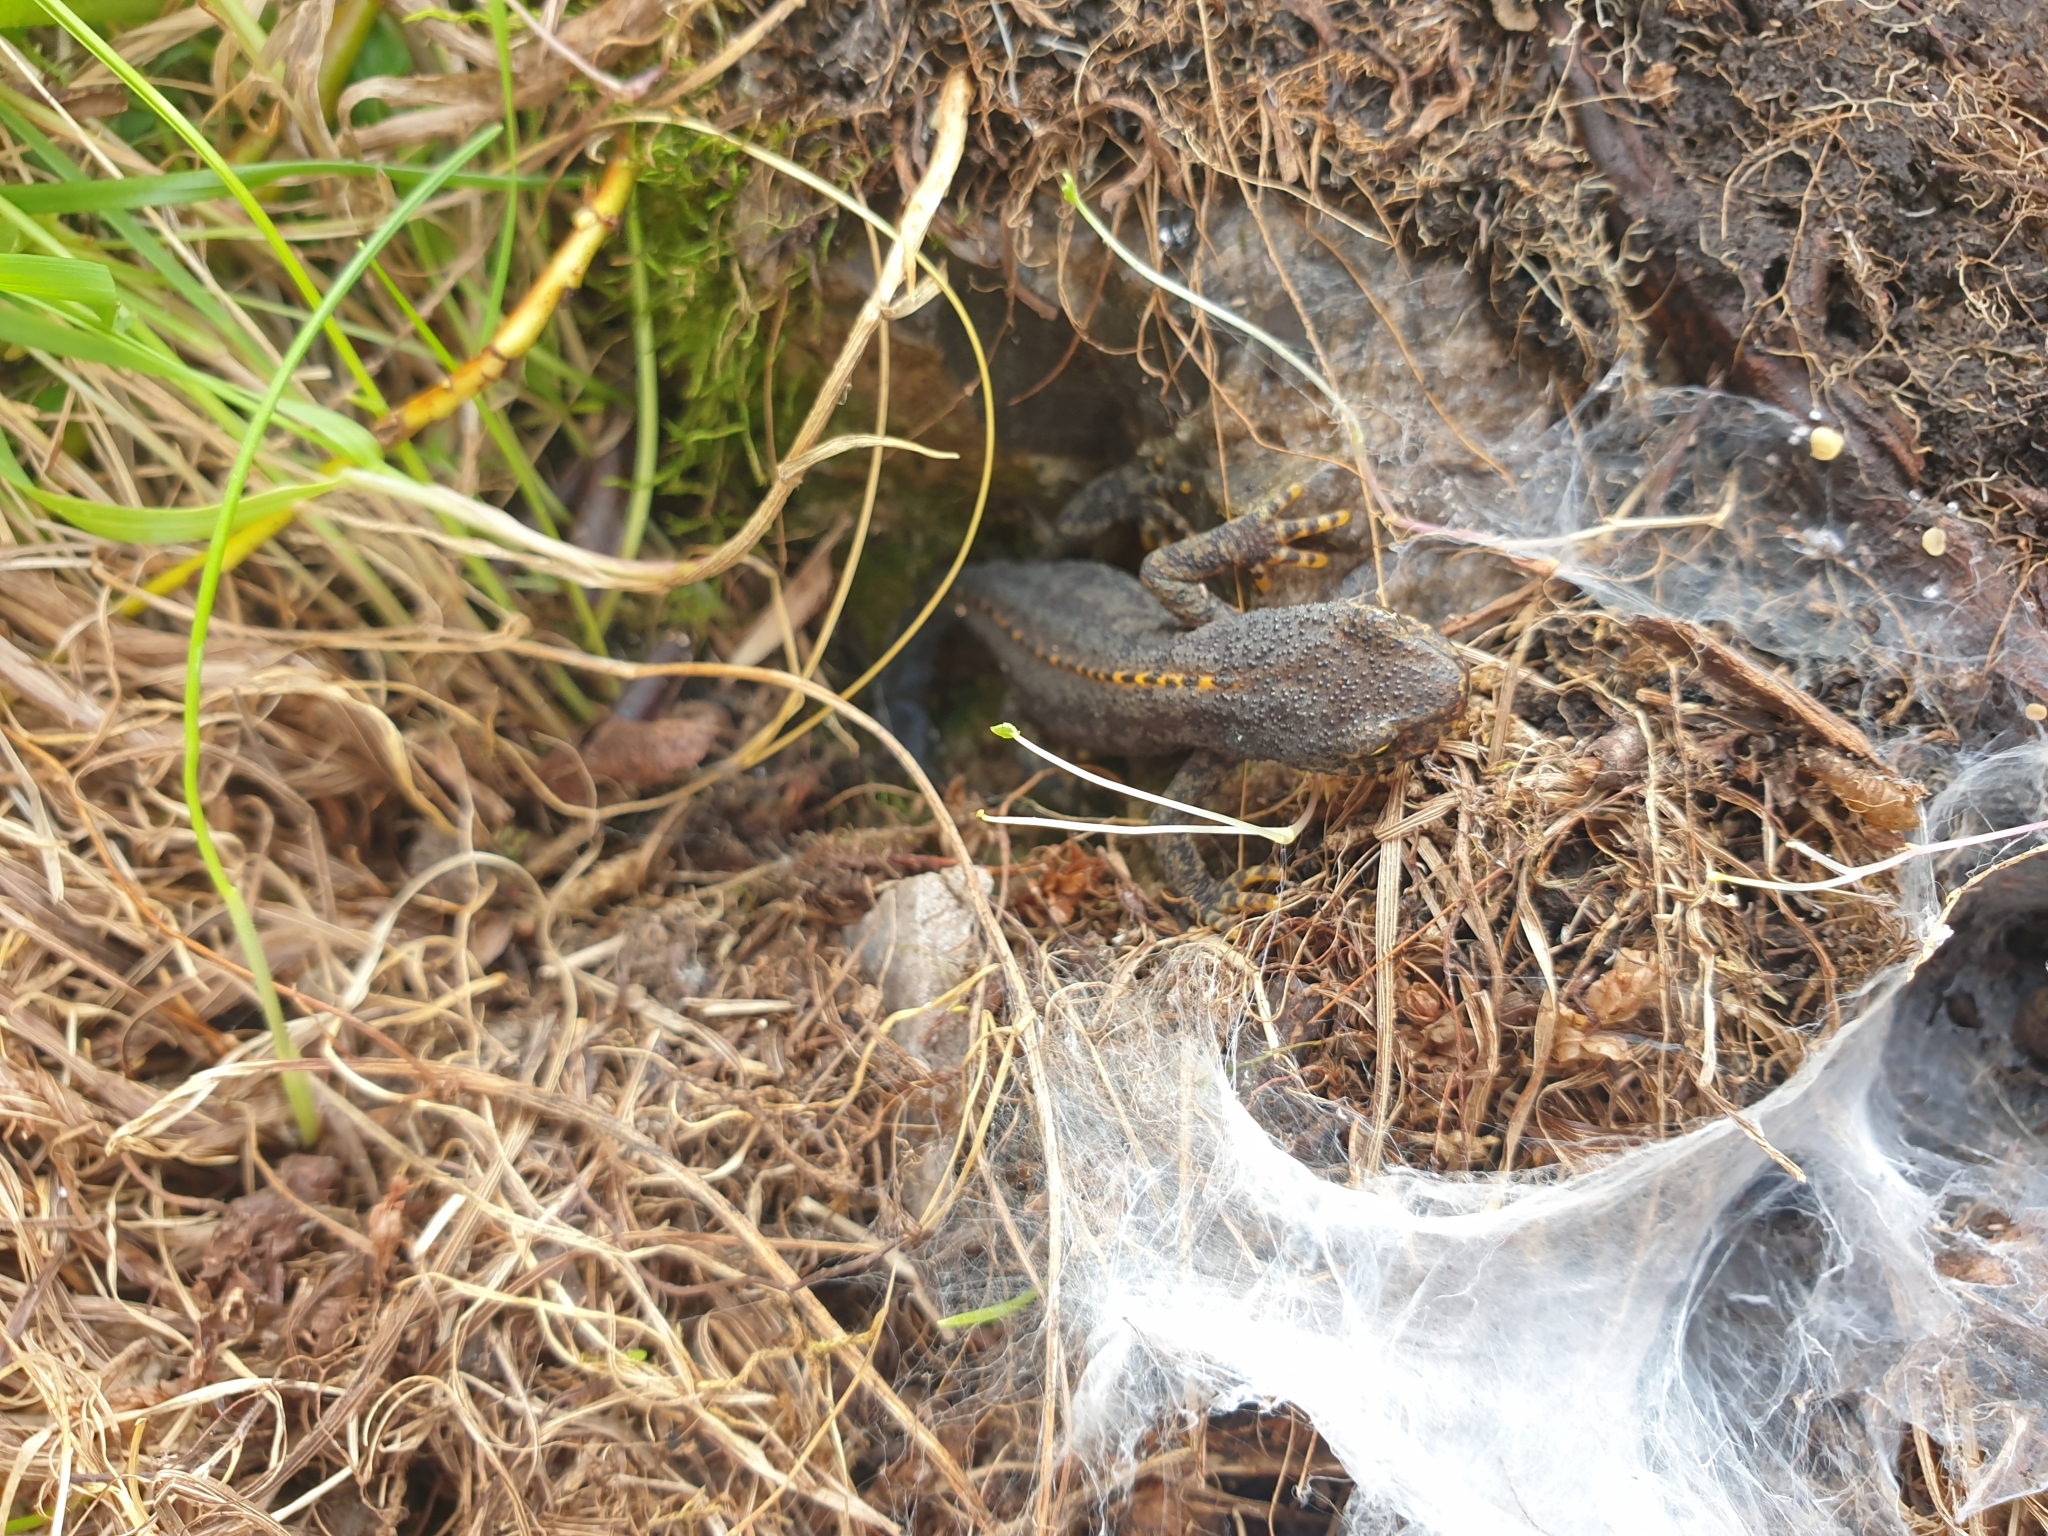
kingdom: Animalia
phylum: Chordata
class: Amphibia
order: Caudata
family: Salamandridae
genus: Ichthyosaura
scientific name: Ichthyosaura alpestris
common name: Alpine newt
